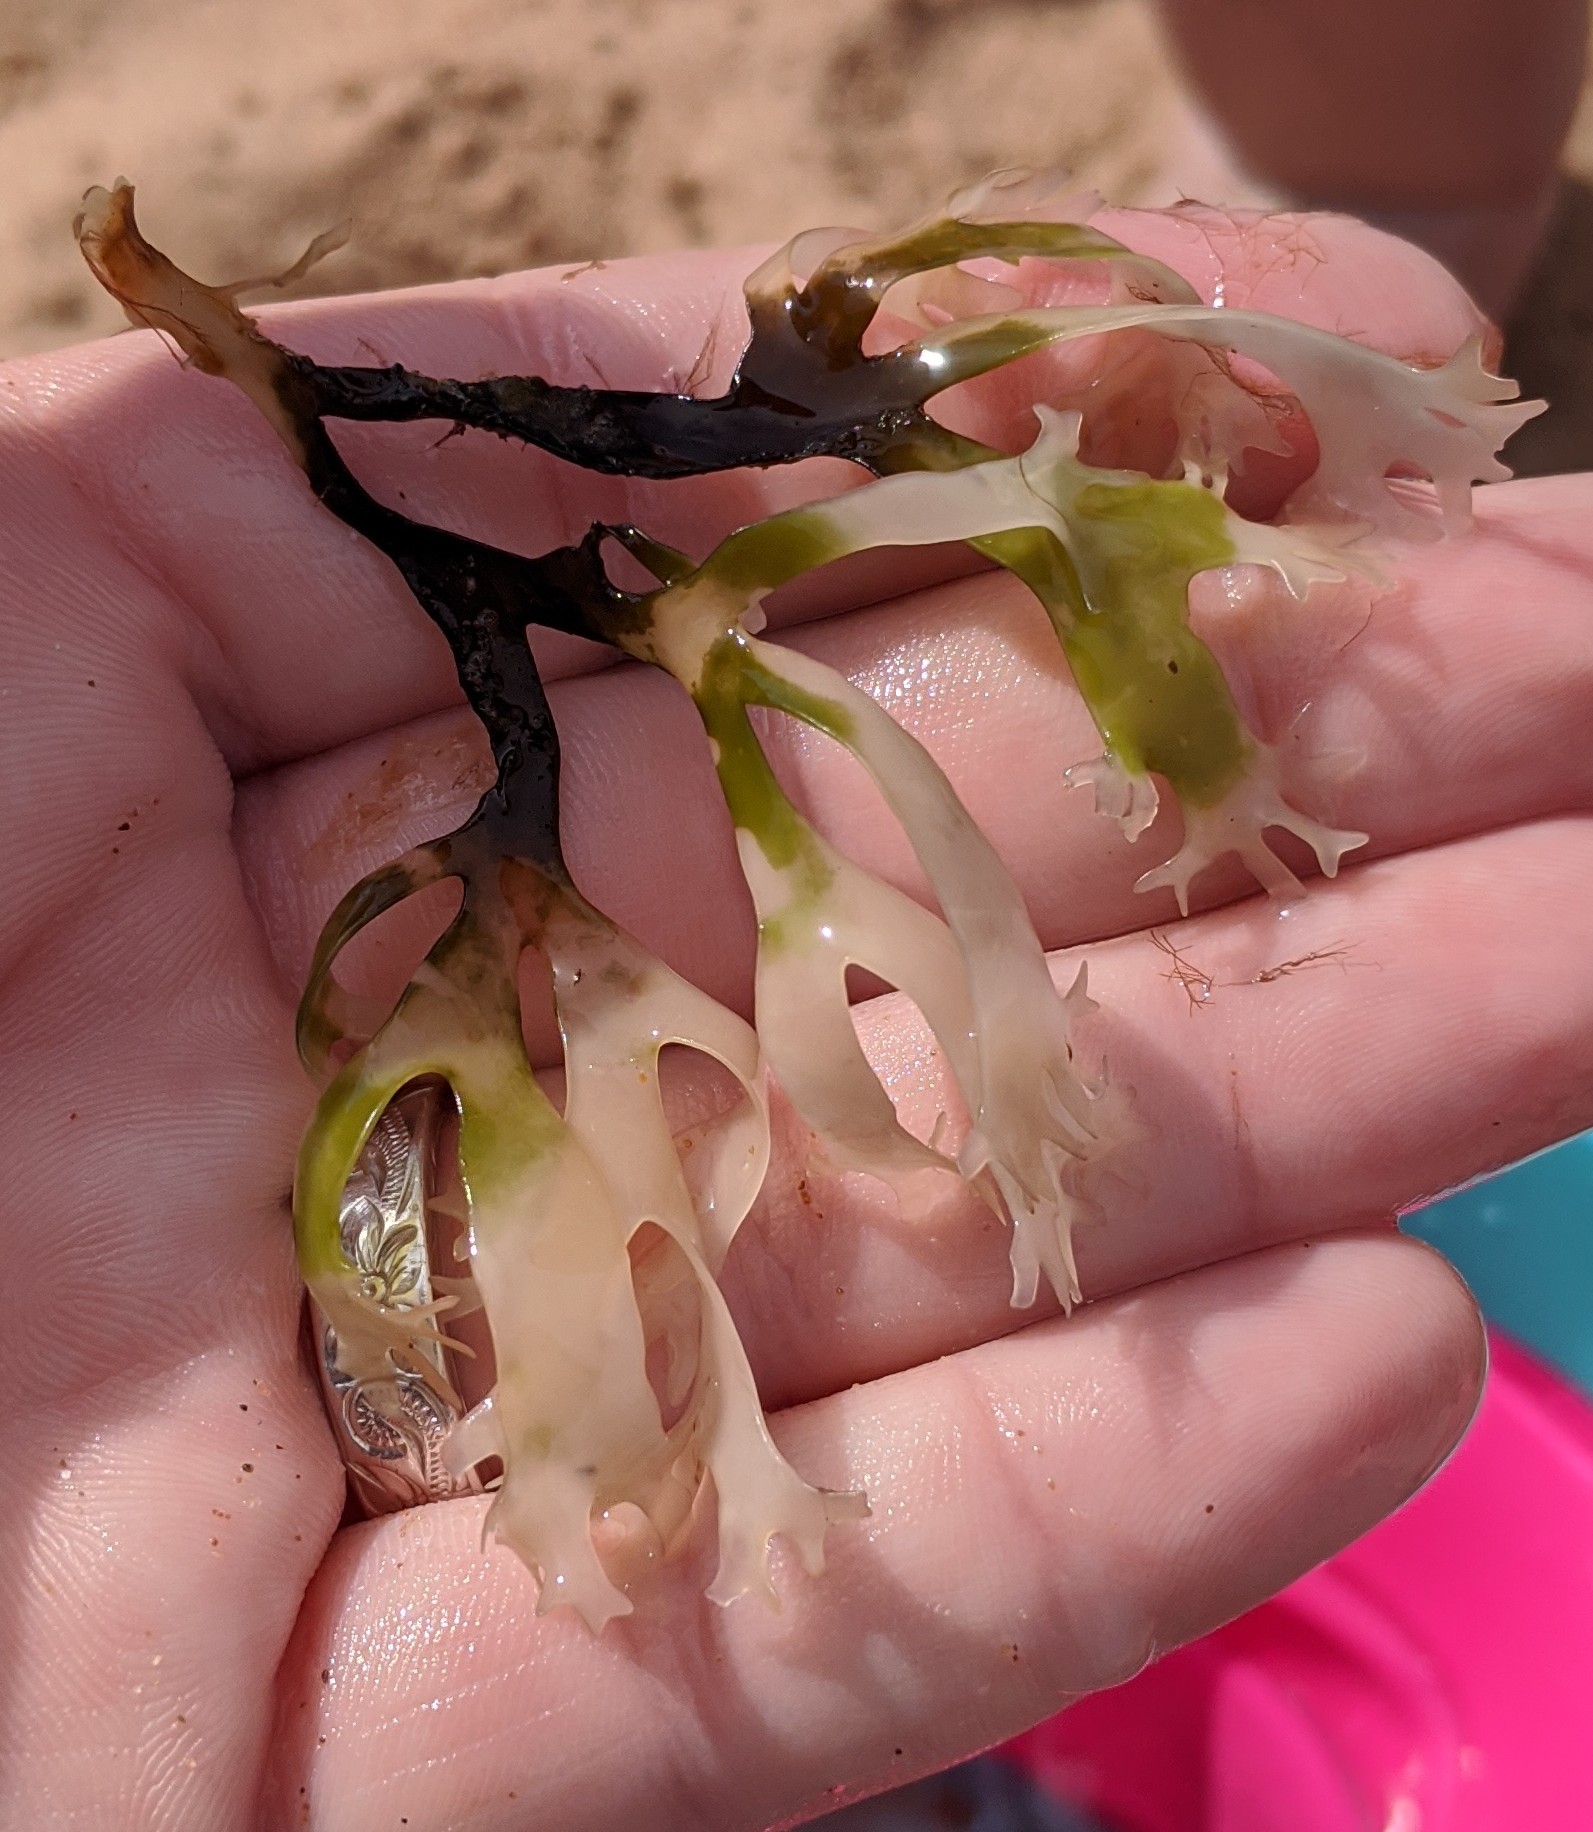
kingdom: Plantae
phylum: Rhodophyta
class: Florideophyceae
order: Gigartinales
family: Gigartinaceae
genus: Chondrus
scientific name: Chondrus crispus
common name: Carrageen
